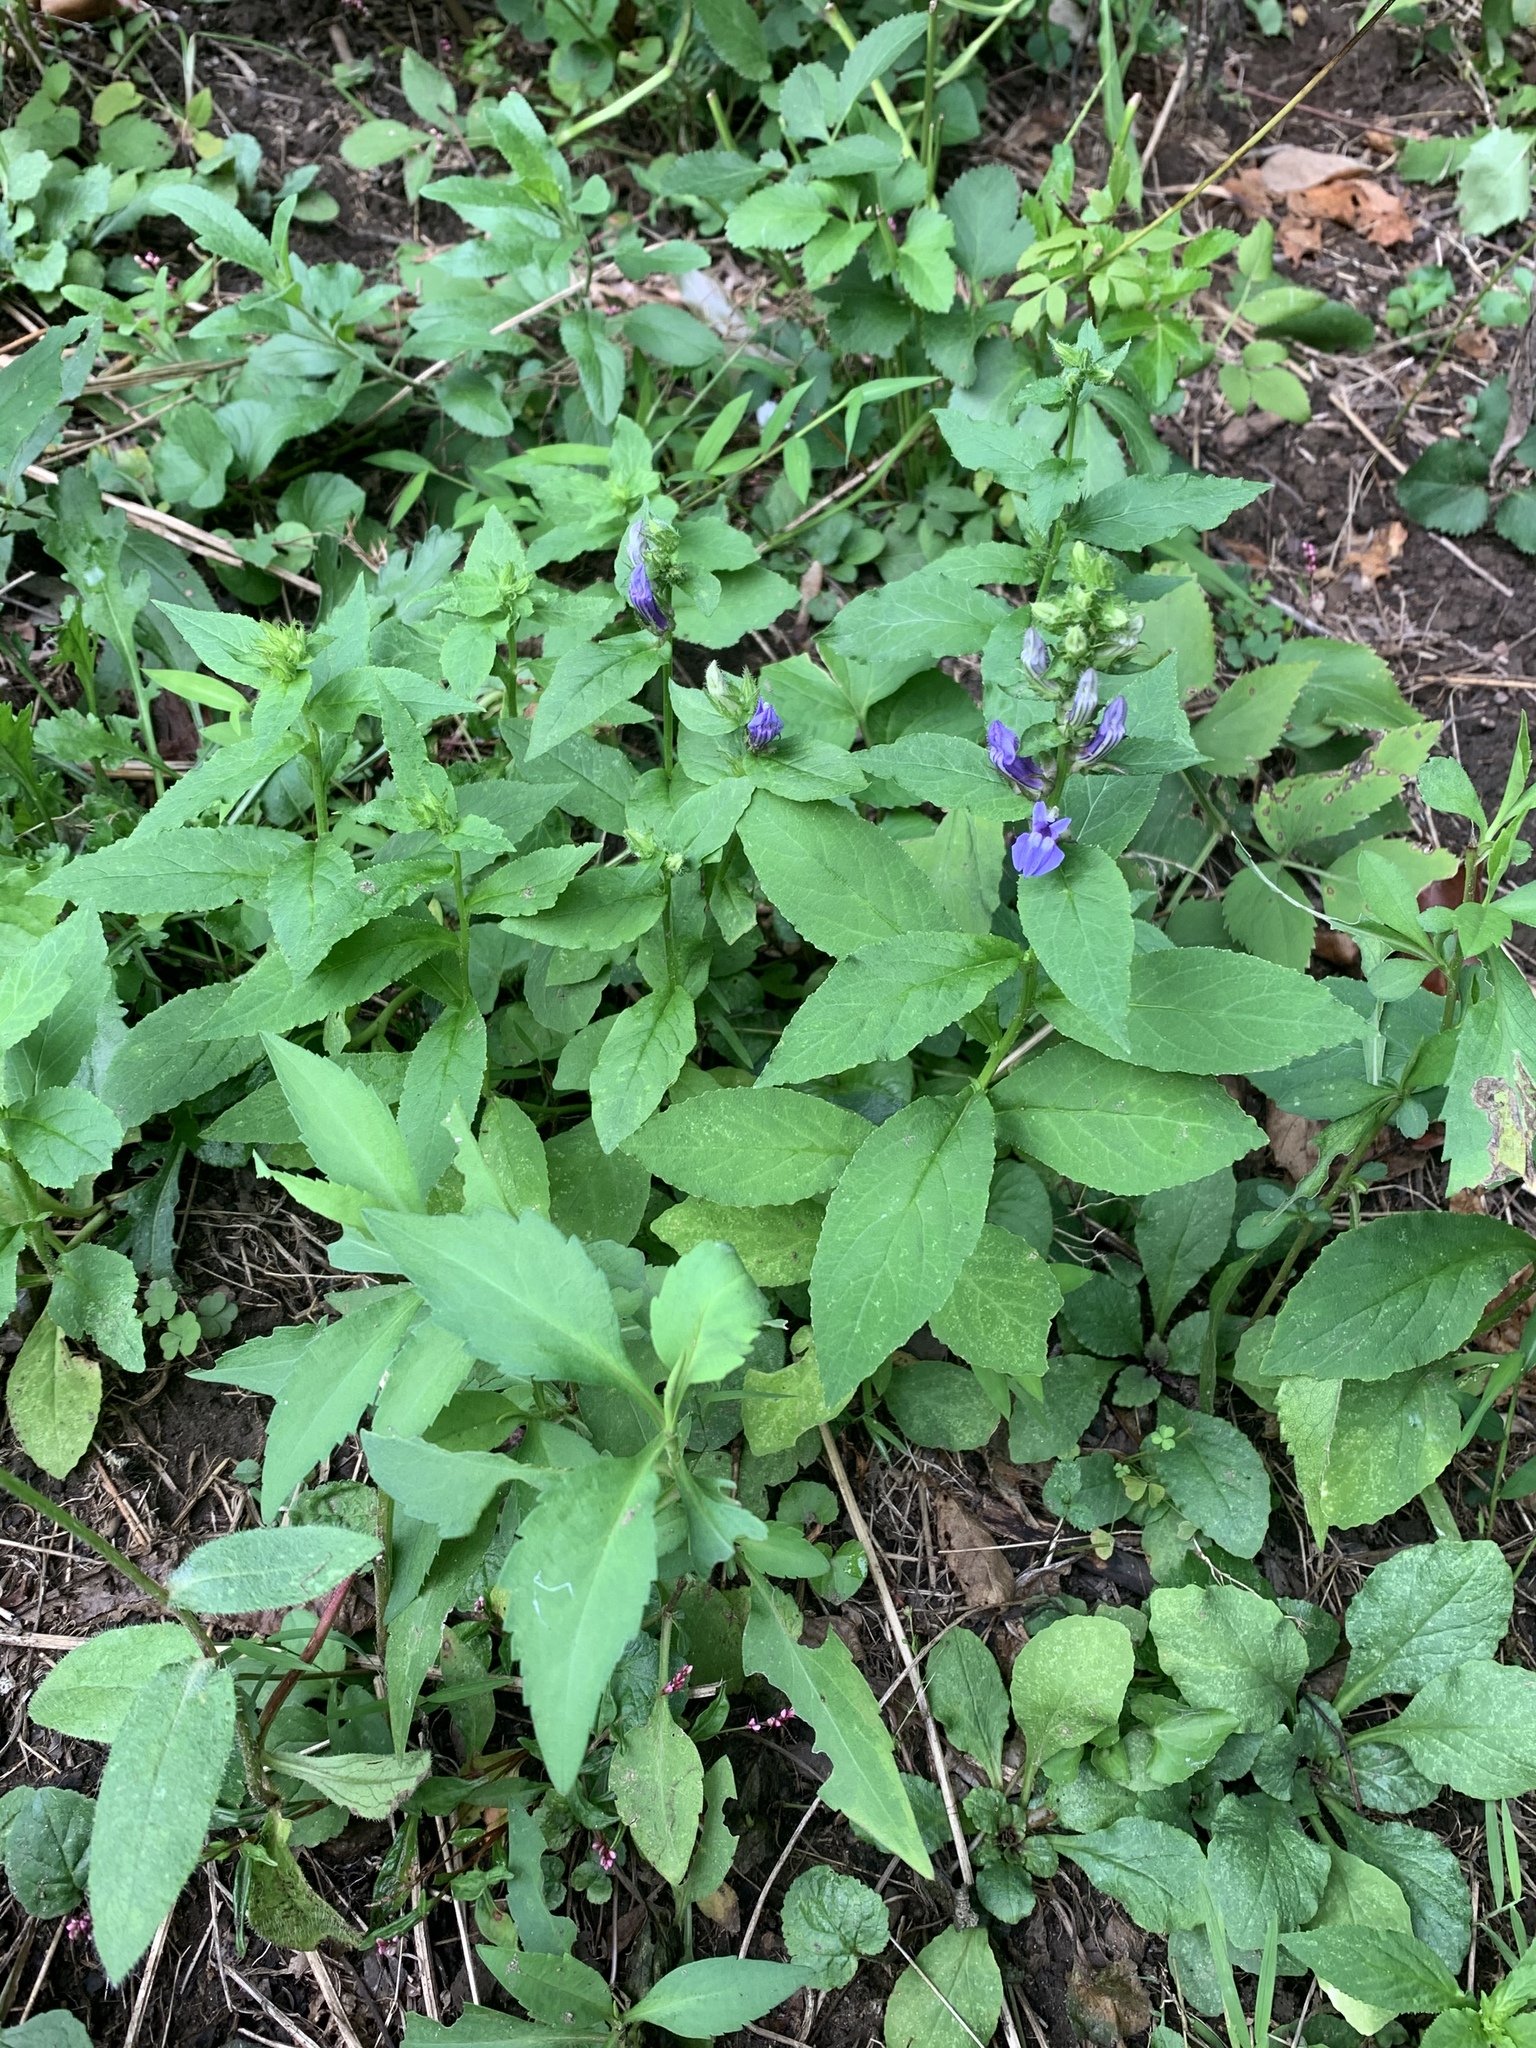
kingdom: Plantae
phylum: Tracheophyta
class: Magnoliopsida
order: Asterales
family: Campanulaceae
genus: Lobelia
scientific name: Lobelia siphilitica
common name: Great lobelia
